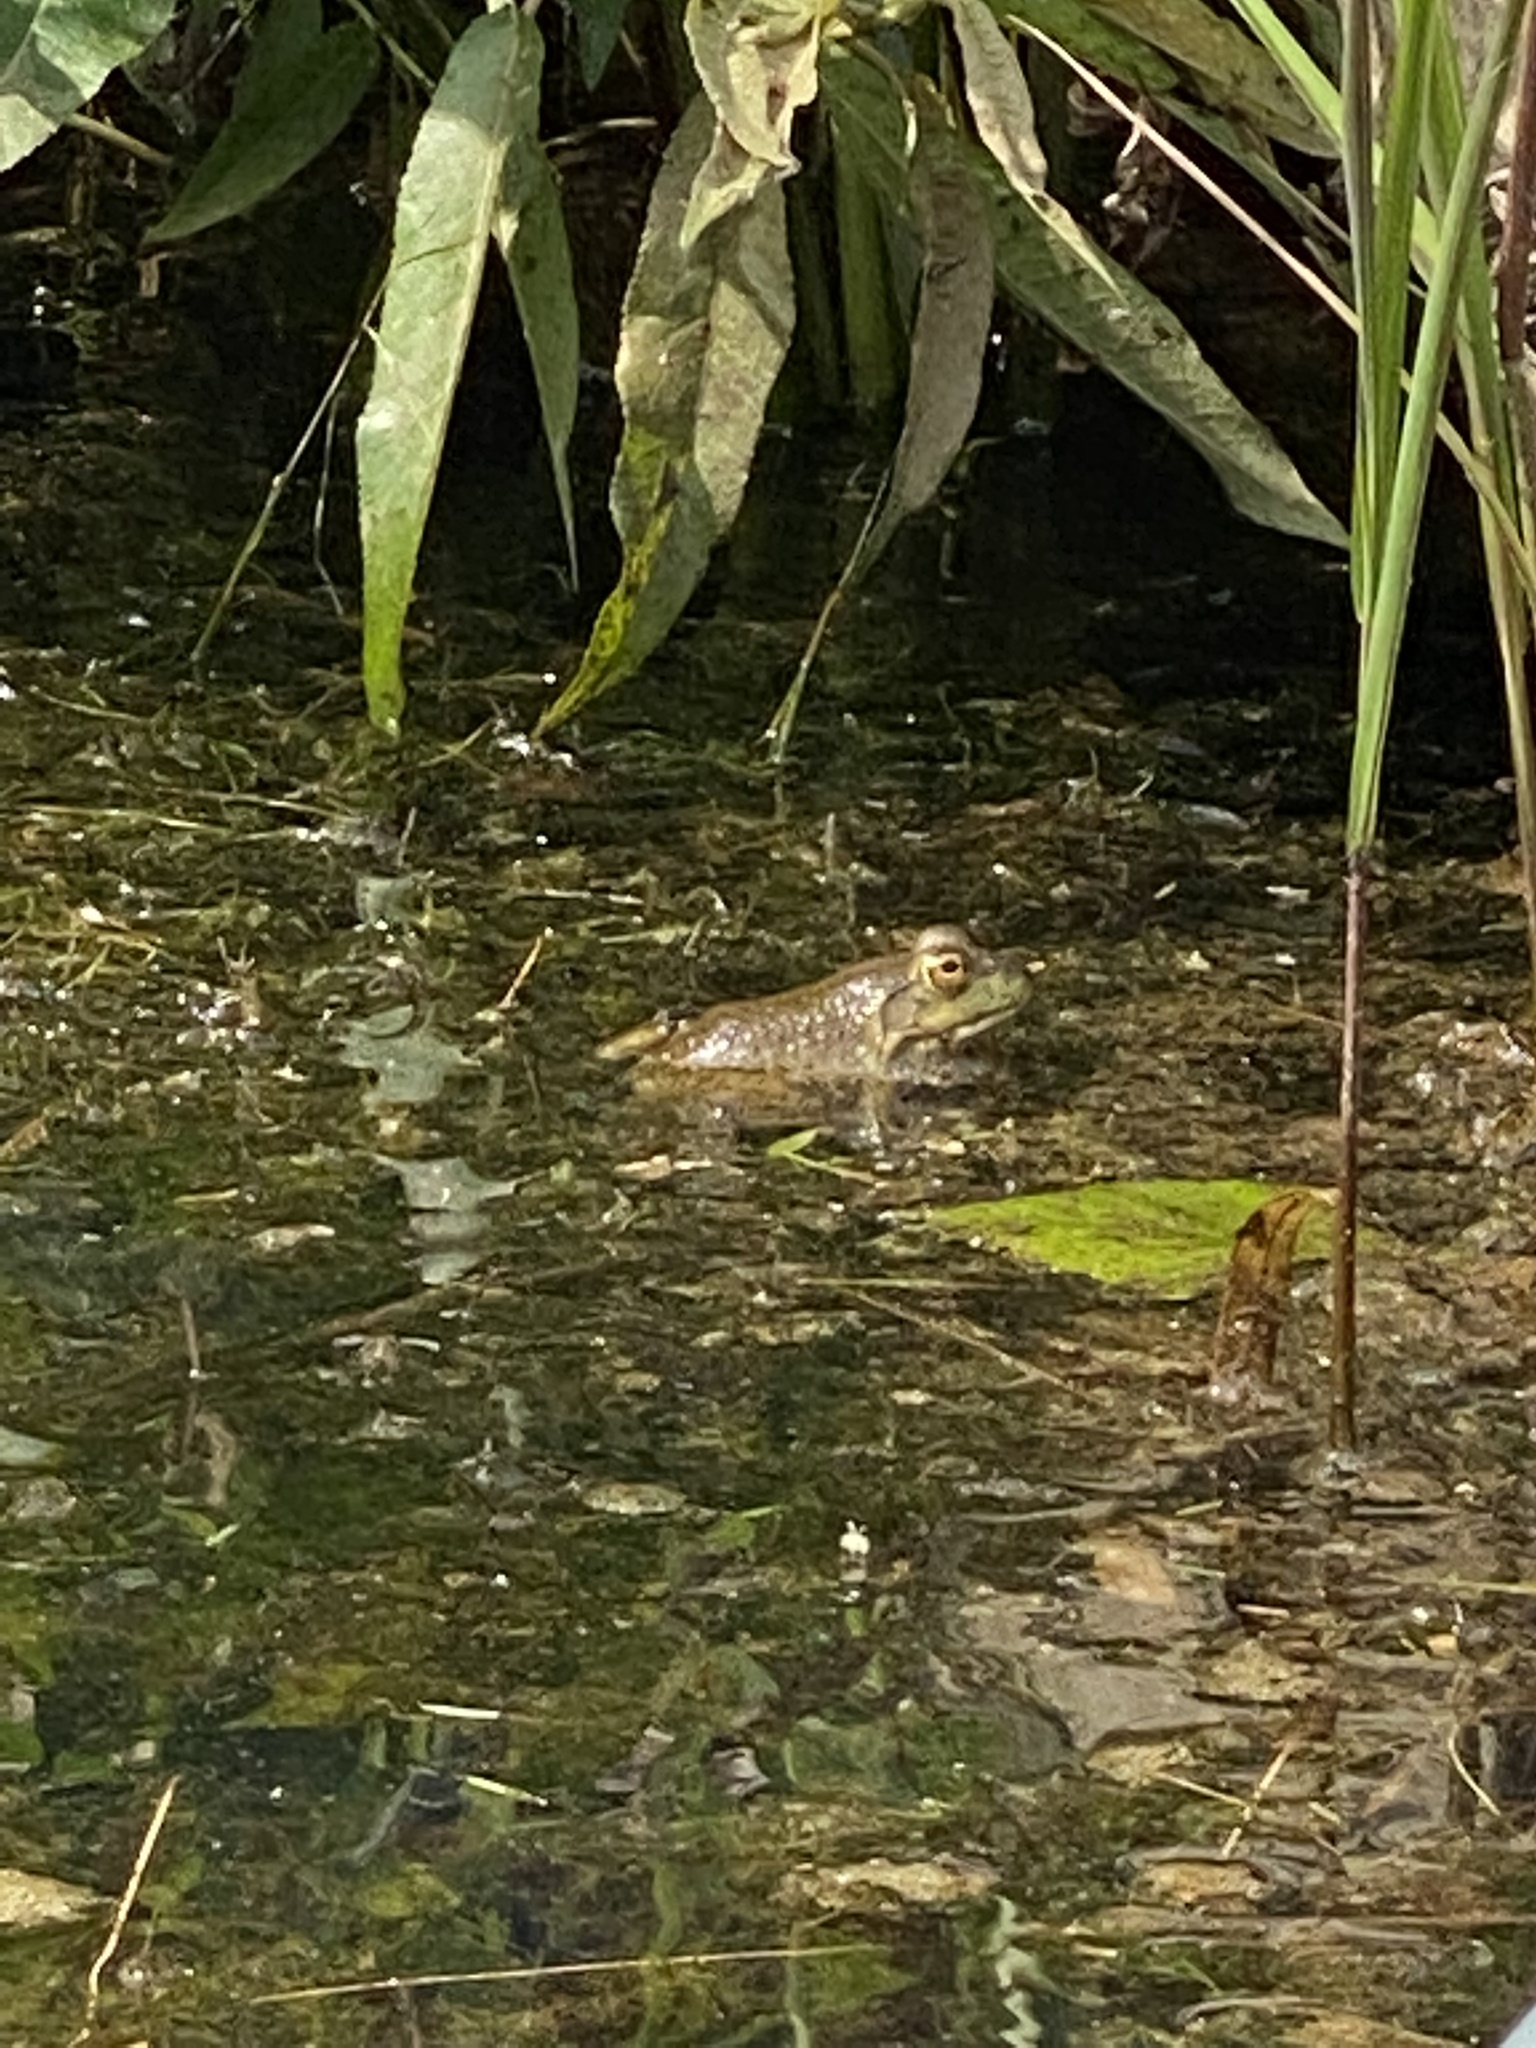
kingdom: Animalia
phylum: Chordata
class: Amphibia
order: Anura
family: Ranidae
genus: Lithobates
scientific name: Lithobates catesbeianus
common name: American bullfrog
